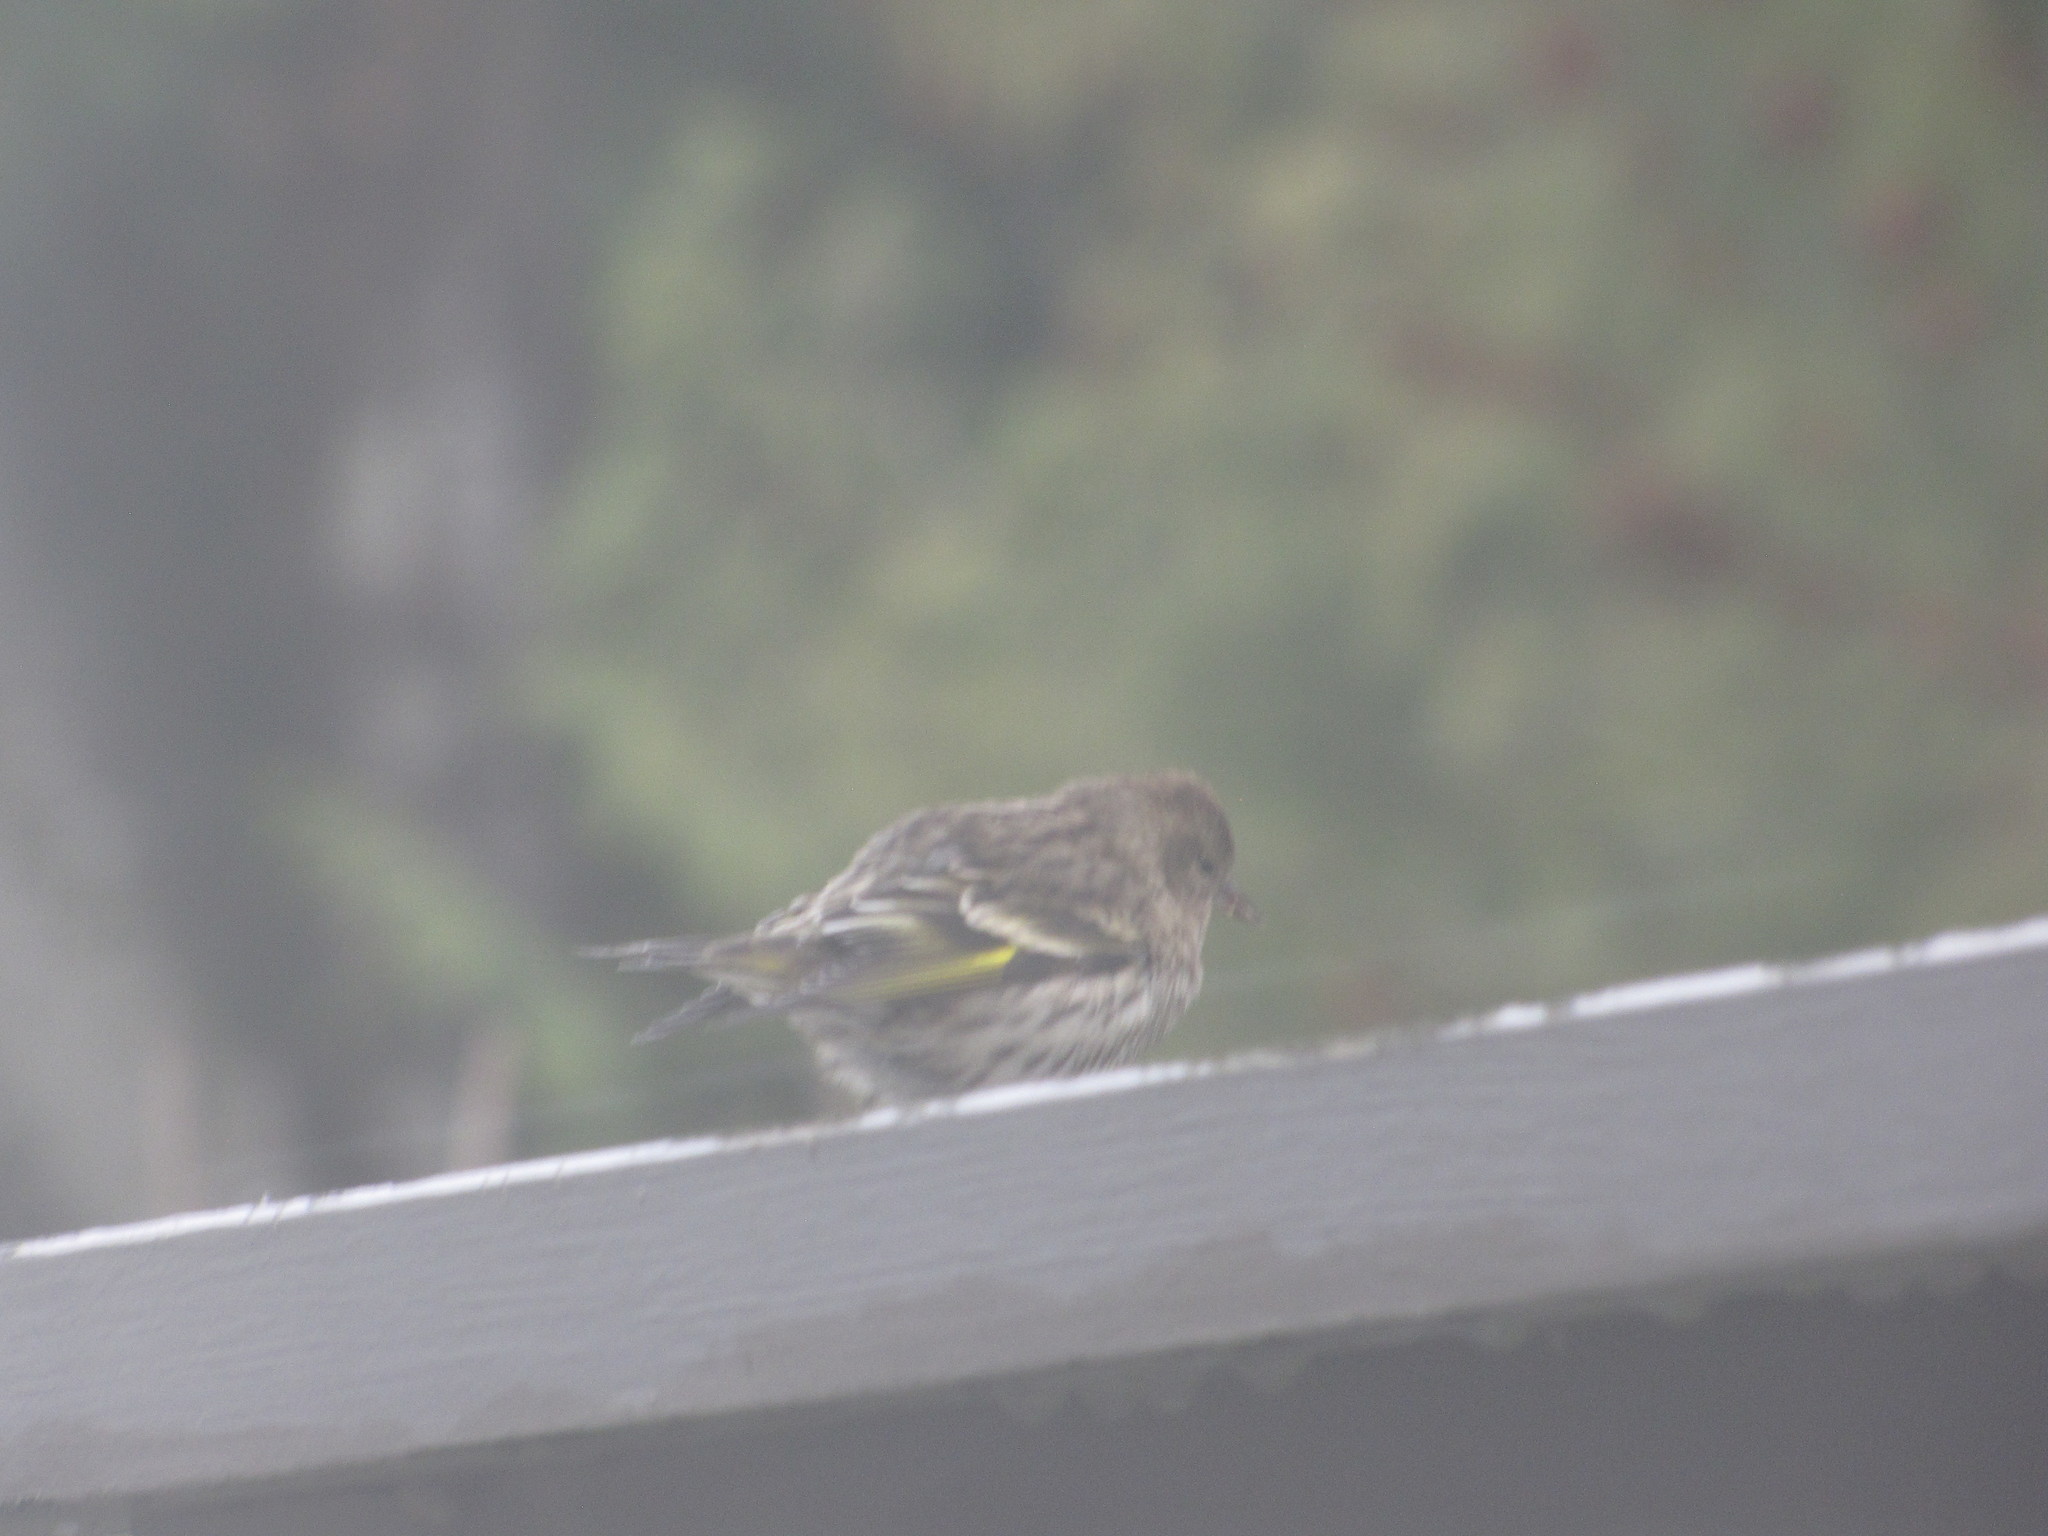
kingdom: Animalia
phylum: Chordata
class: Aves
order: Passeriformes
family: Fringillidae
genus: Spinus
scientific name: Spinus pinus
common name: Pine siskin
